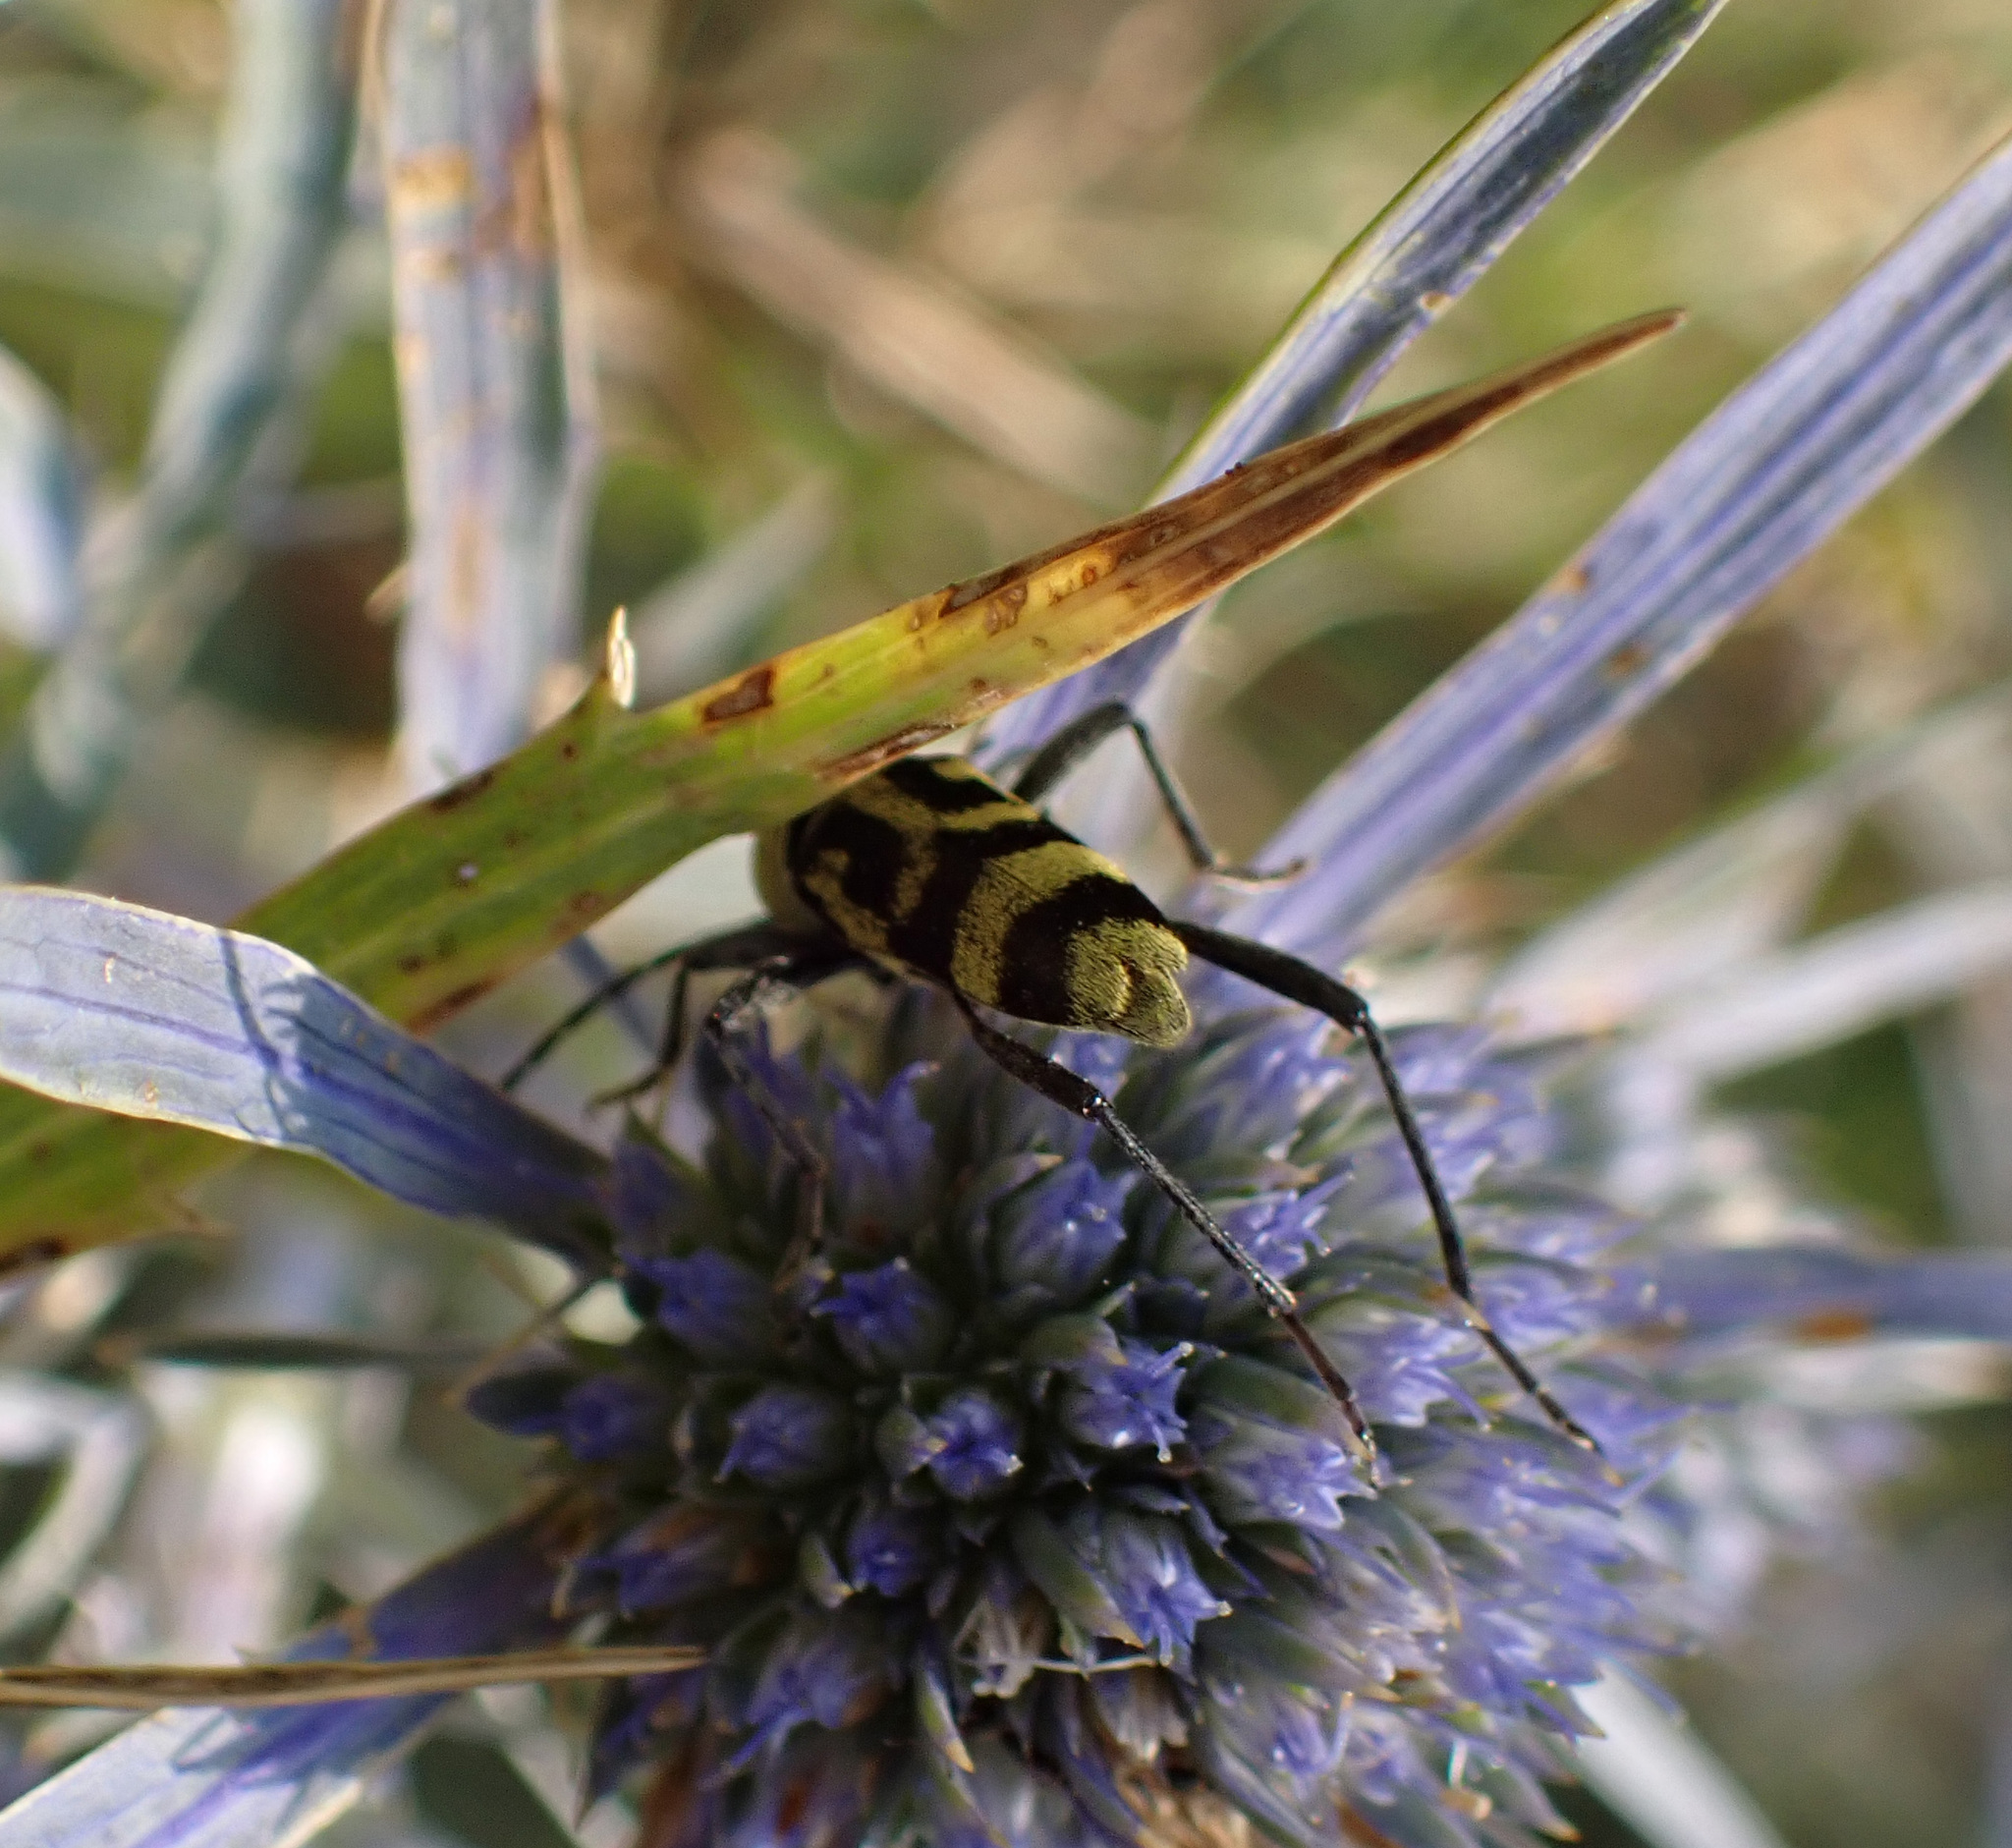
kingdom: Animalia
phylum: Arthropoda
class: Insecta
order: Coleoptera
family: Cerambycidae
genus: Chlorophorus
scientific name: Chlorophorus varius
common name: Grape wood borer
